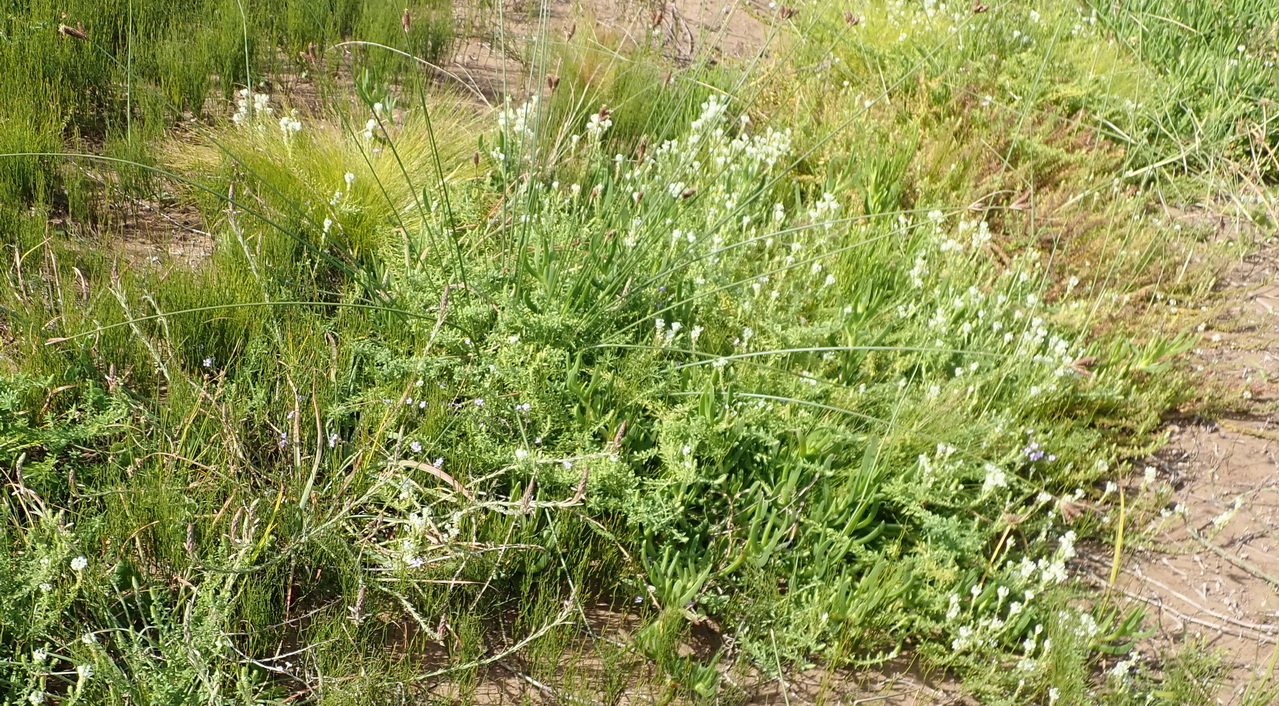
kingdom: Plantae
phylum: Tracheophyta
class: Magnoliopsida
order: Lamiales
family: Scrophulariaceae
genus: Dischisma
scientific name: Dischisma ciliatum
